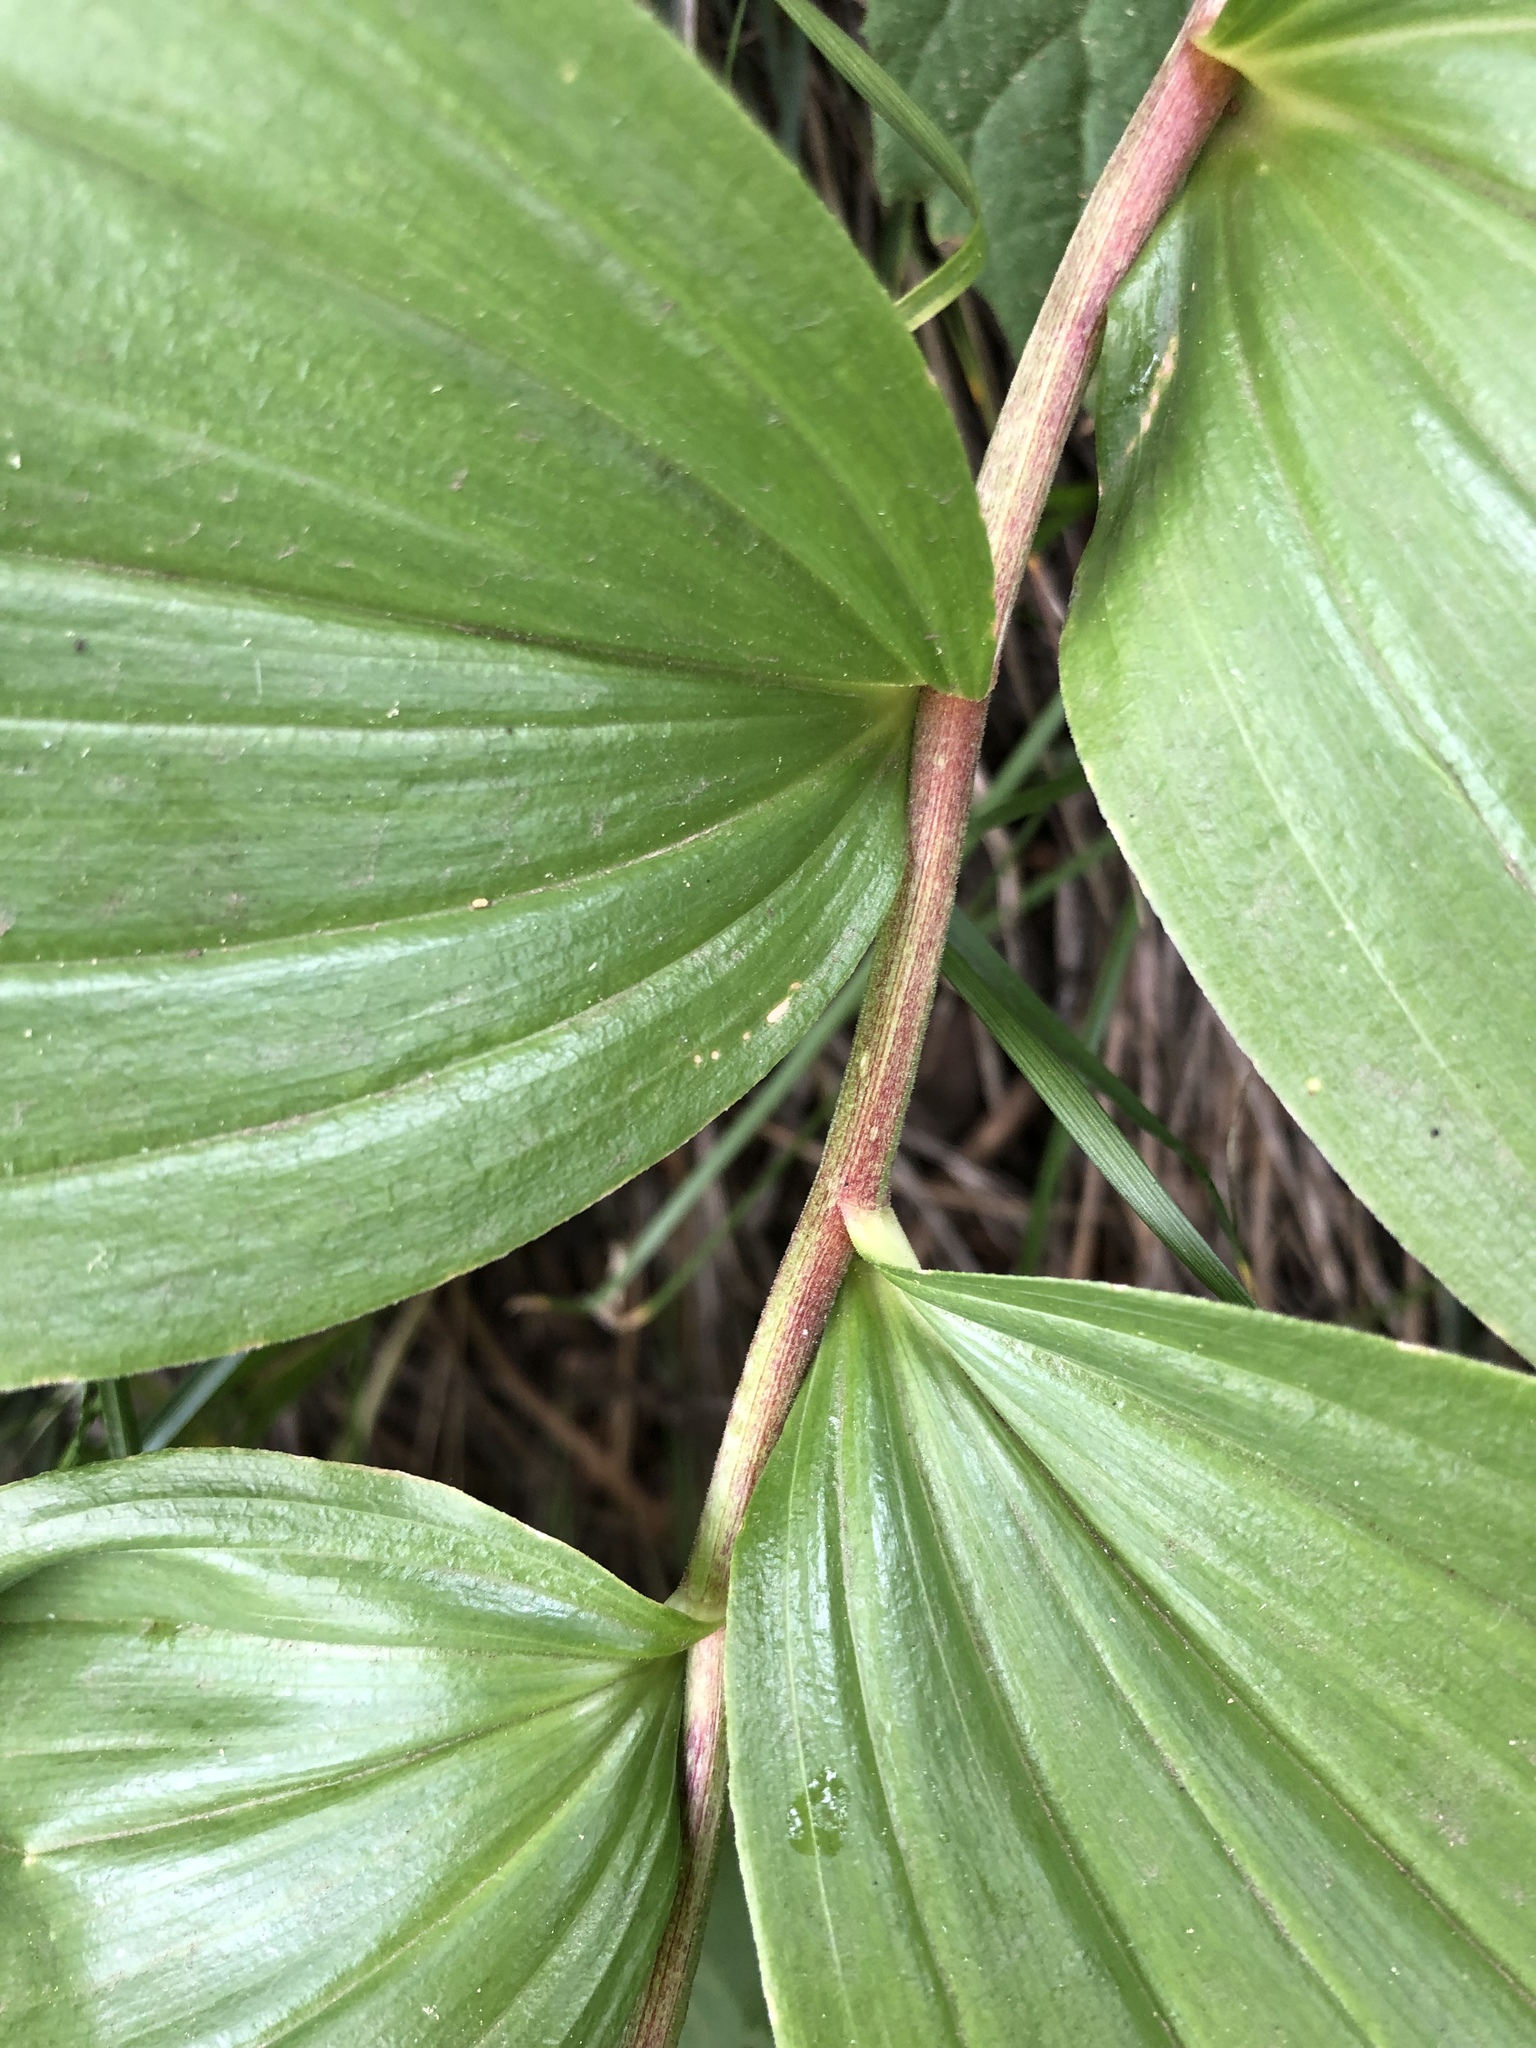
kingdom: Plantae
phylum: Tracheophyta
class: Liliopsida
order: Asparagales
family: Asparagaceae
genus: Maianthemum
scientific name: Maianthemum racemosum
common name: False spikenard
